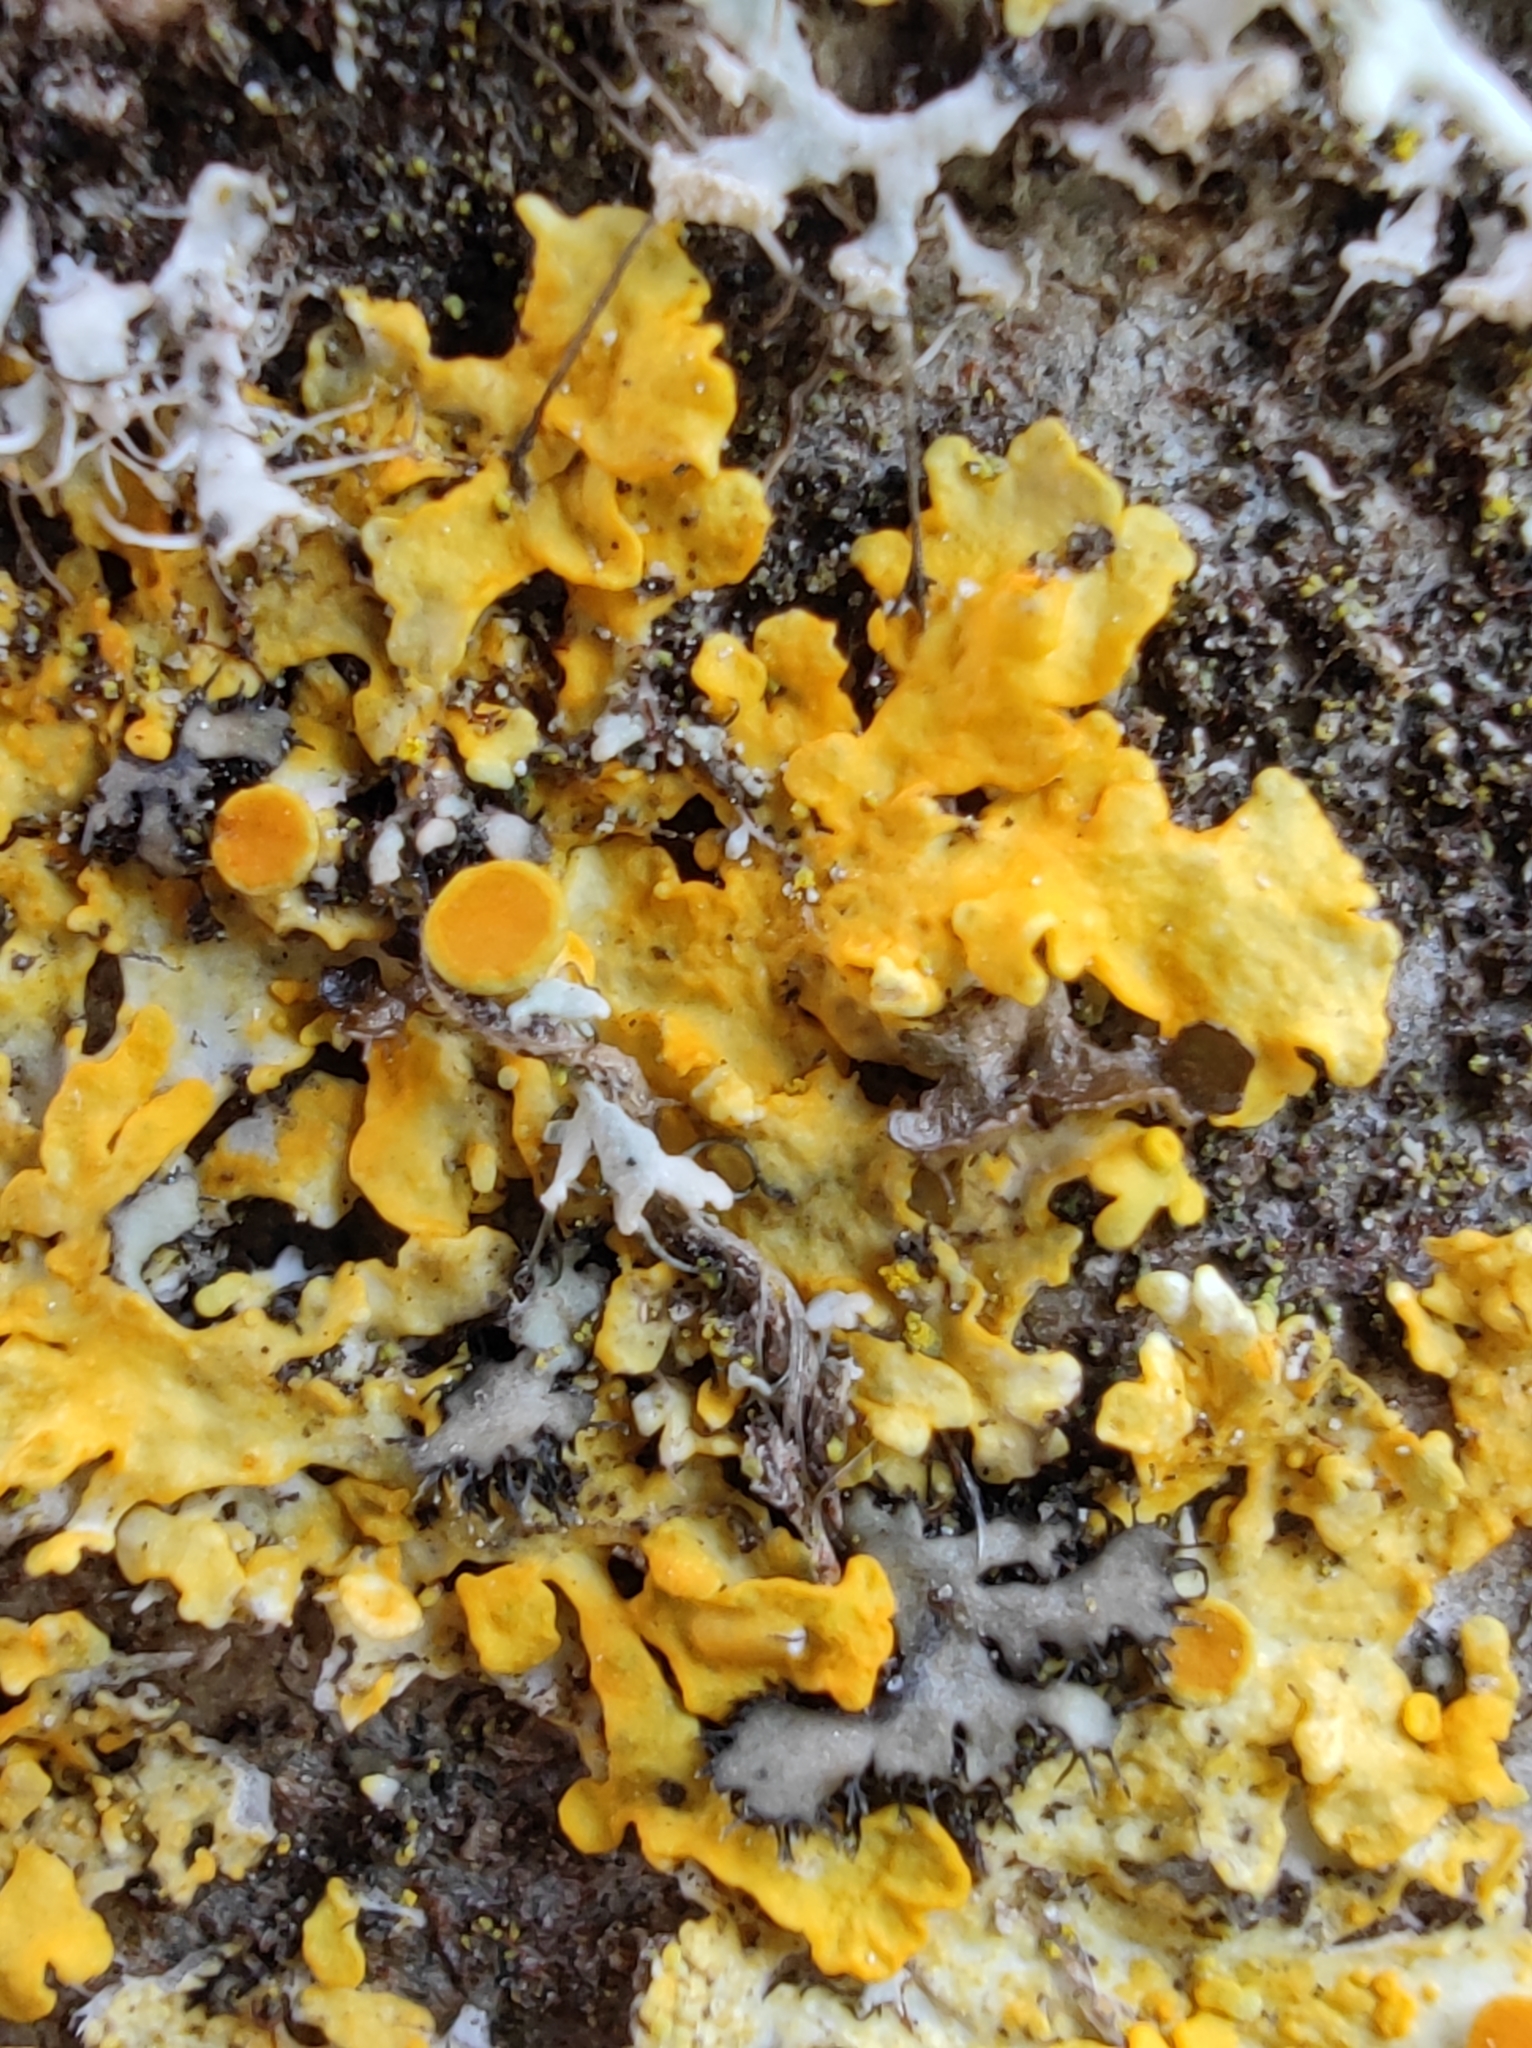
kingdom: Fungi
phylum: Ascomycota
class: Lecanoromycetes
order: Teloschistales
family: Teloschistaceae
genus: Xanthoria
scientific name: Xanthoria parietina
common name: Common orange lichen
